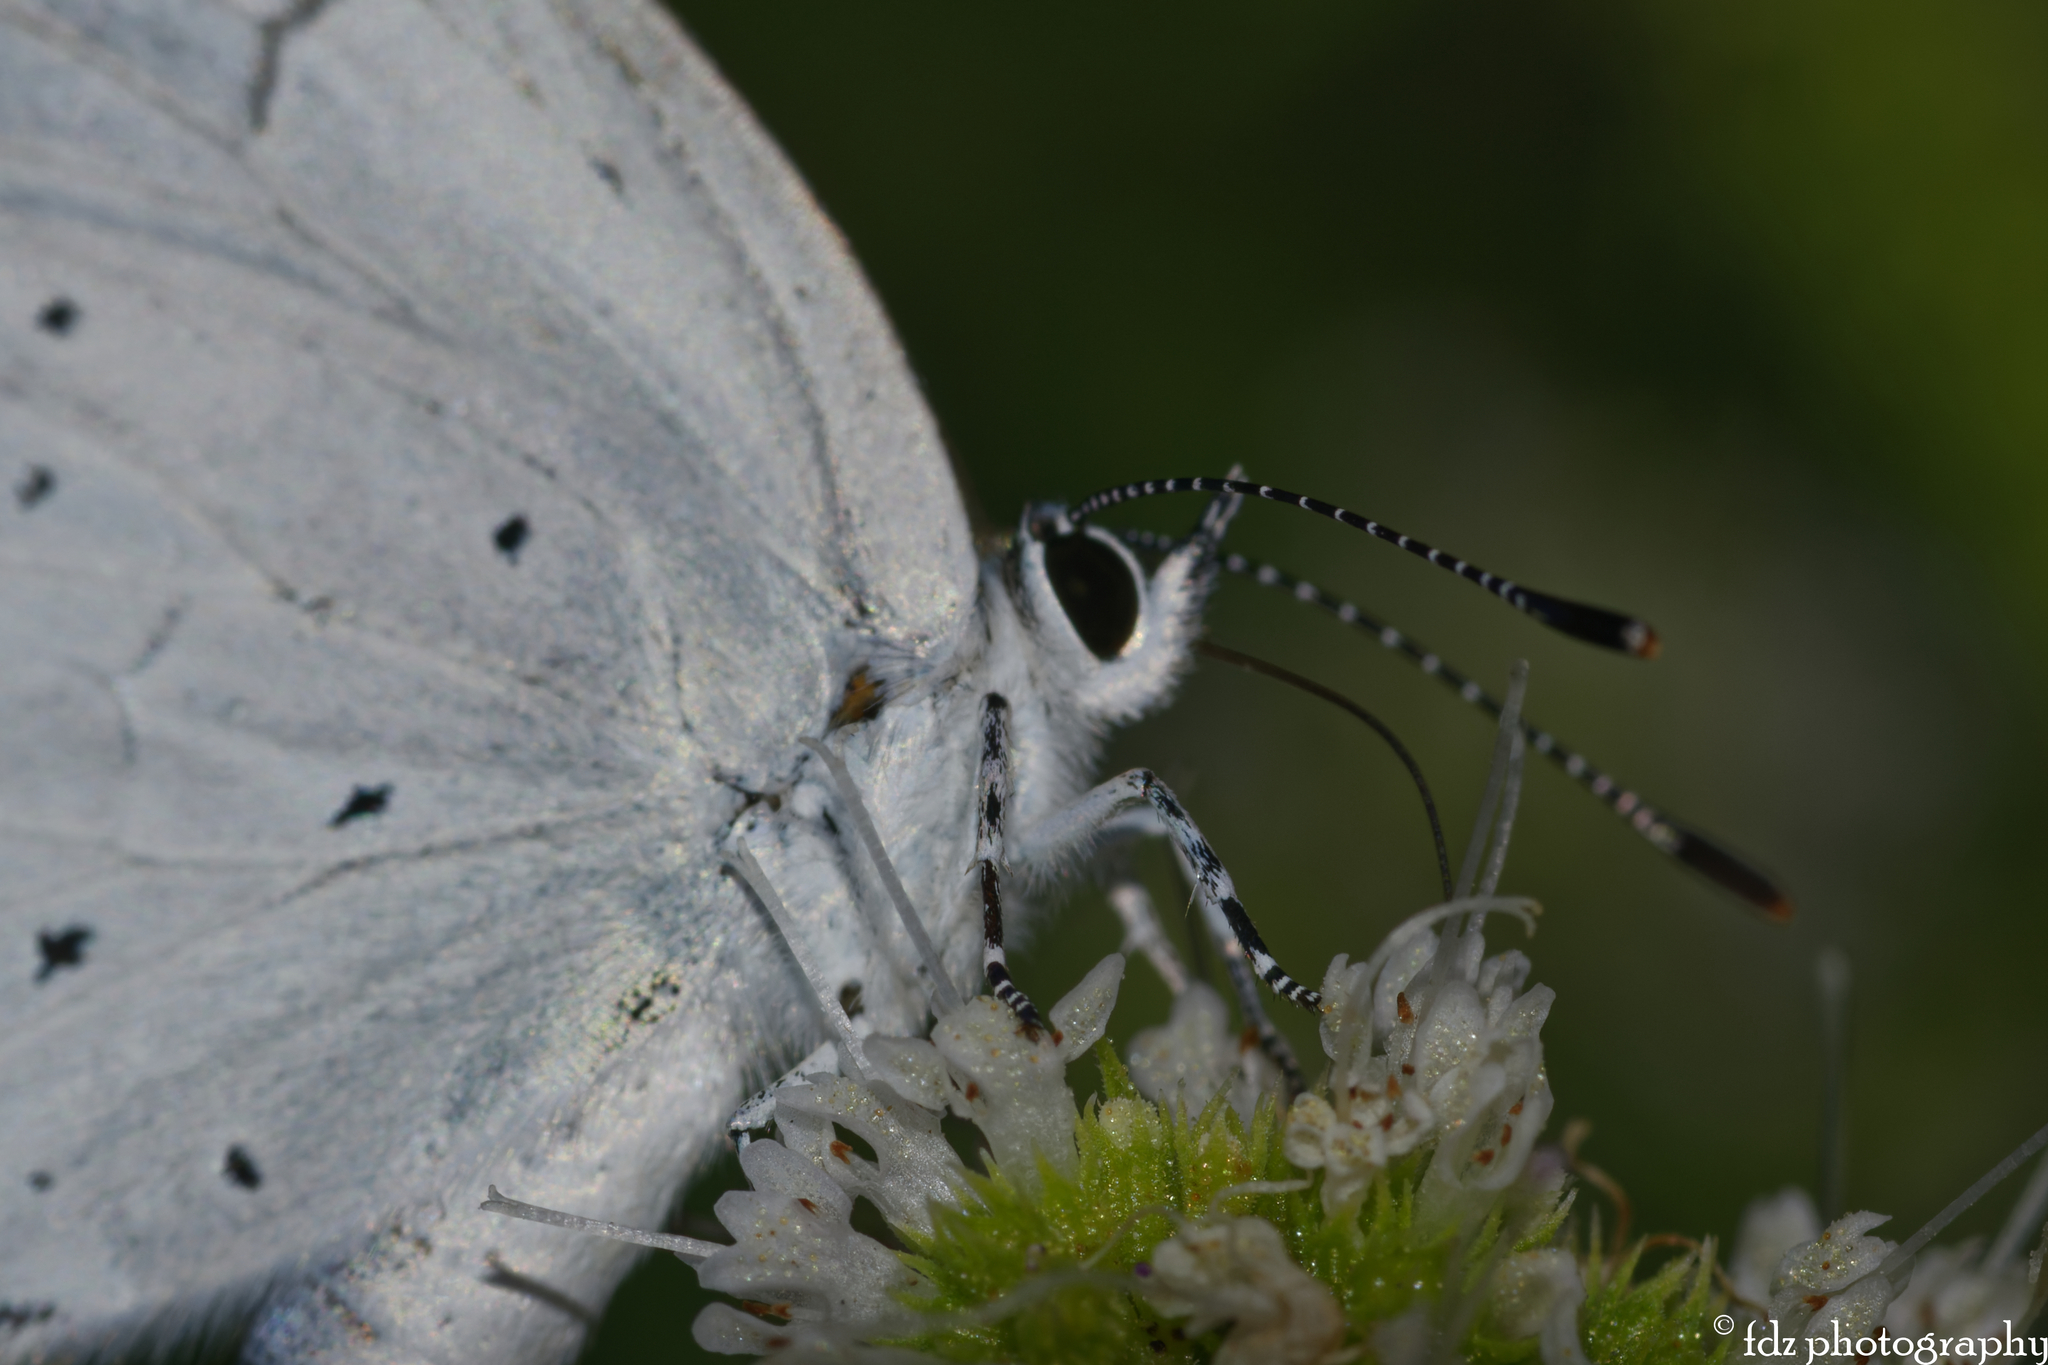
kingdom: Animalia
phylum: Arthropoda
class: Insecta
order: Lepidoptera
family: Lycaenidae
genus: Celastrina
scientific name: Celastrina argiolus
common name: Holly blue
